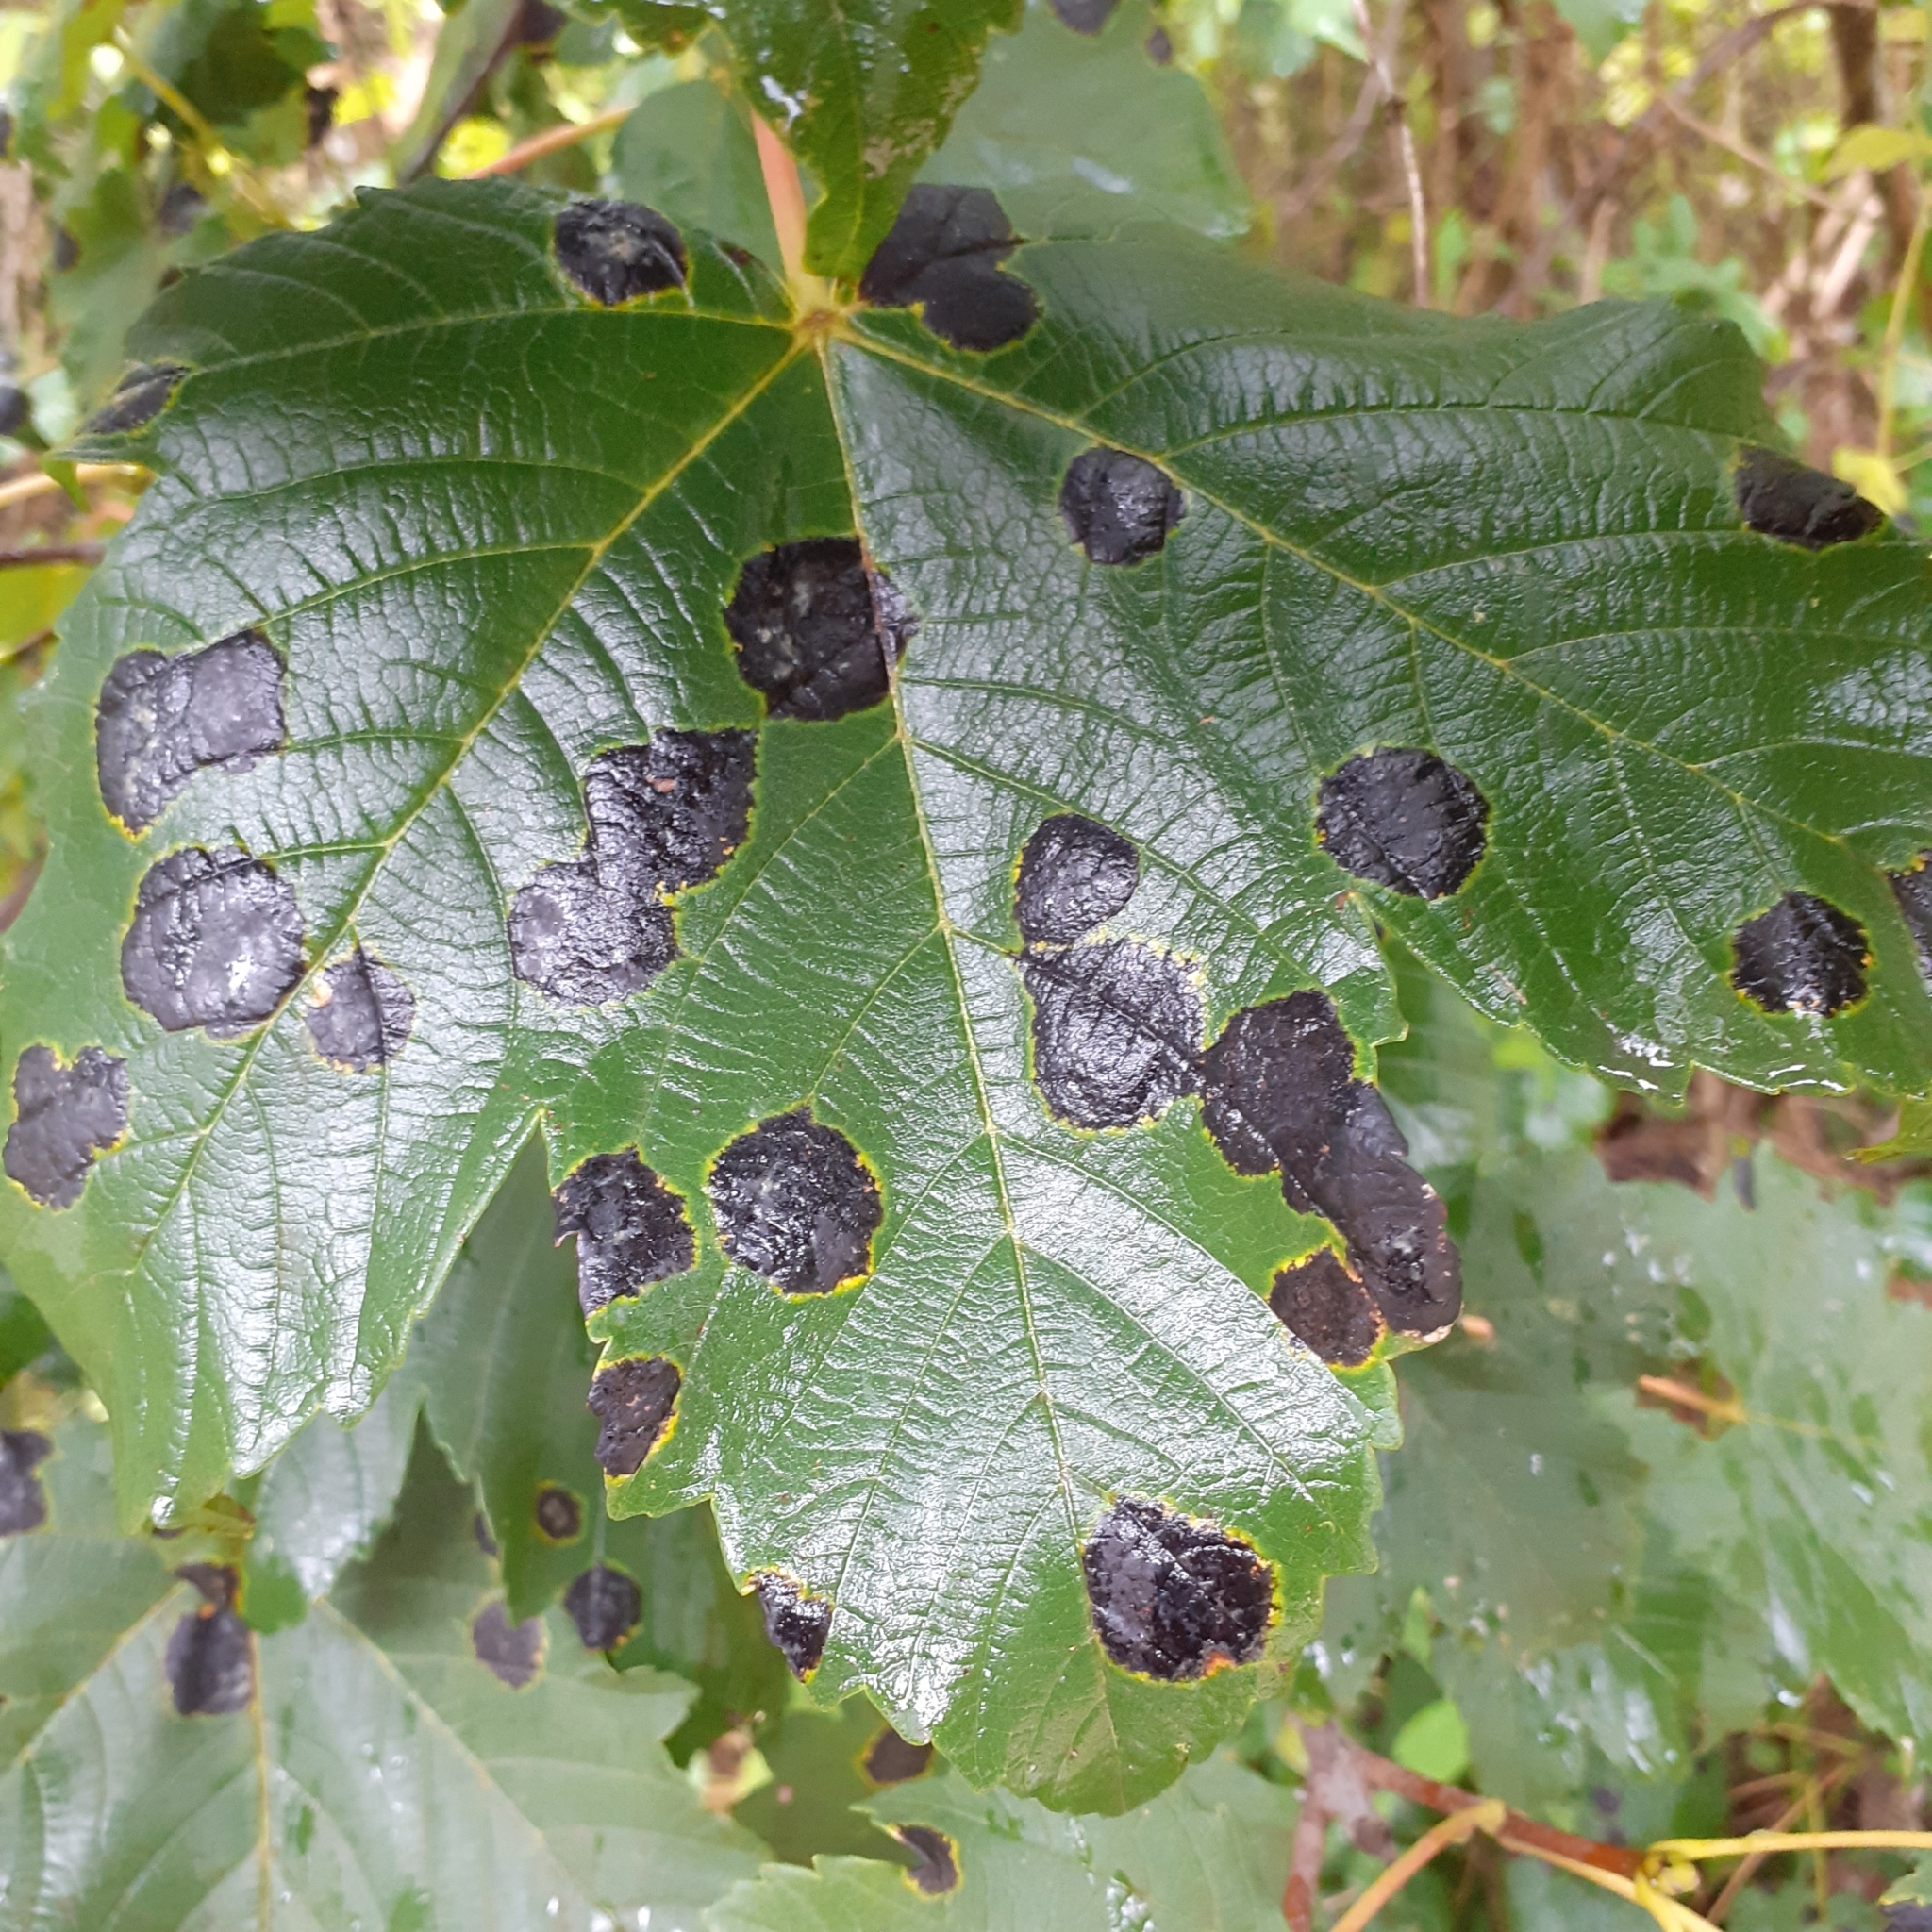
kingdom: Fungi
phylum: Ascomycota
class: Leotiomycetes
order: Rhytismatales
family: Rhytismataceae
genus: Rhytisma
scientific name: Rhytisma acerinum
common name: European tar spot
